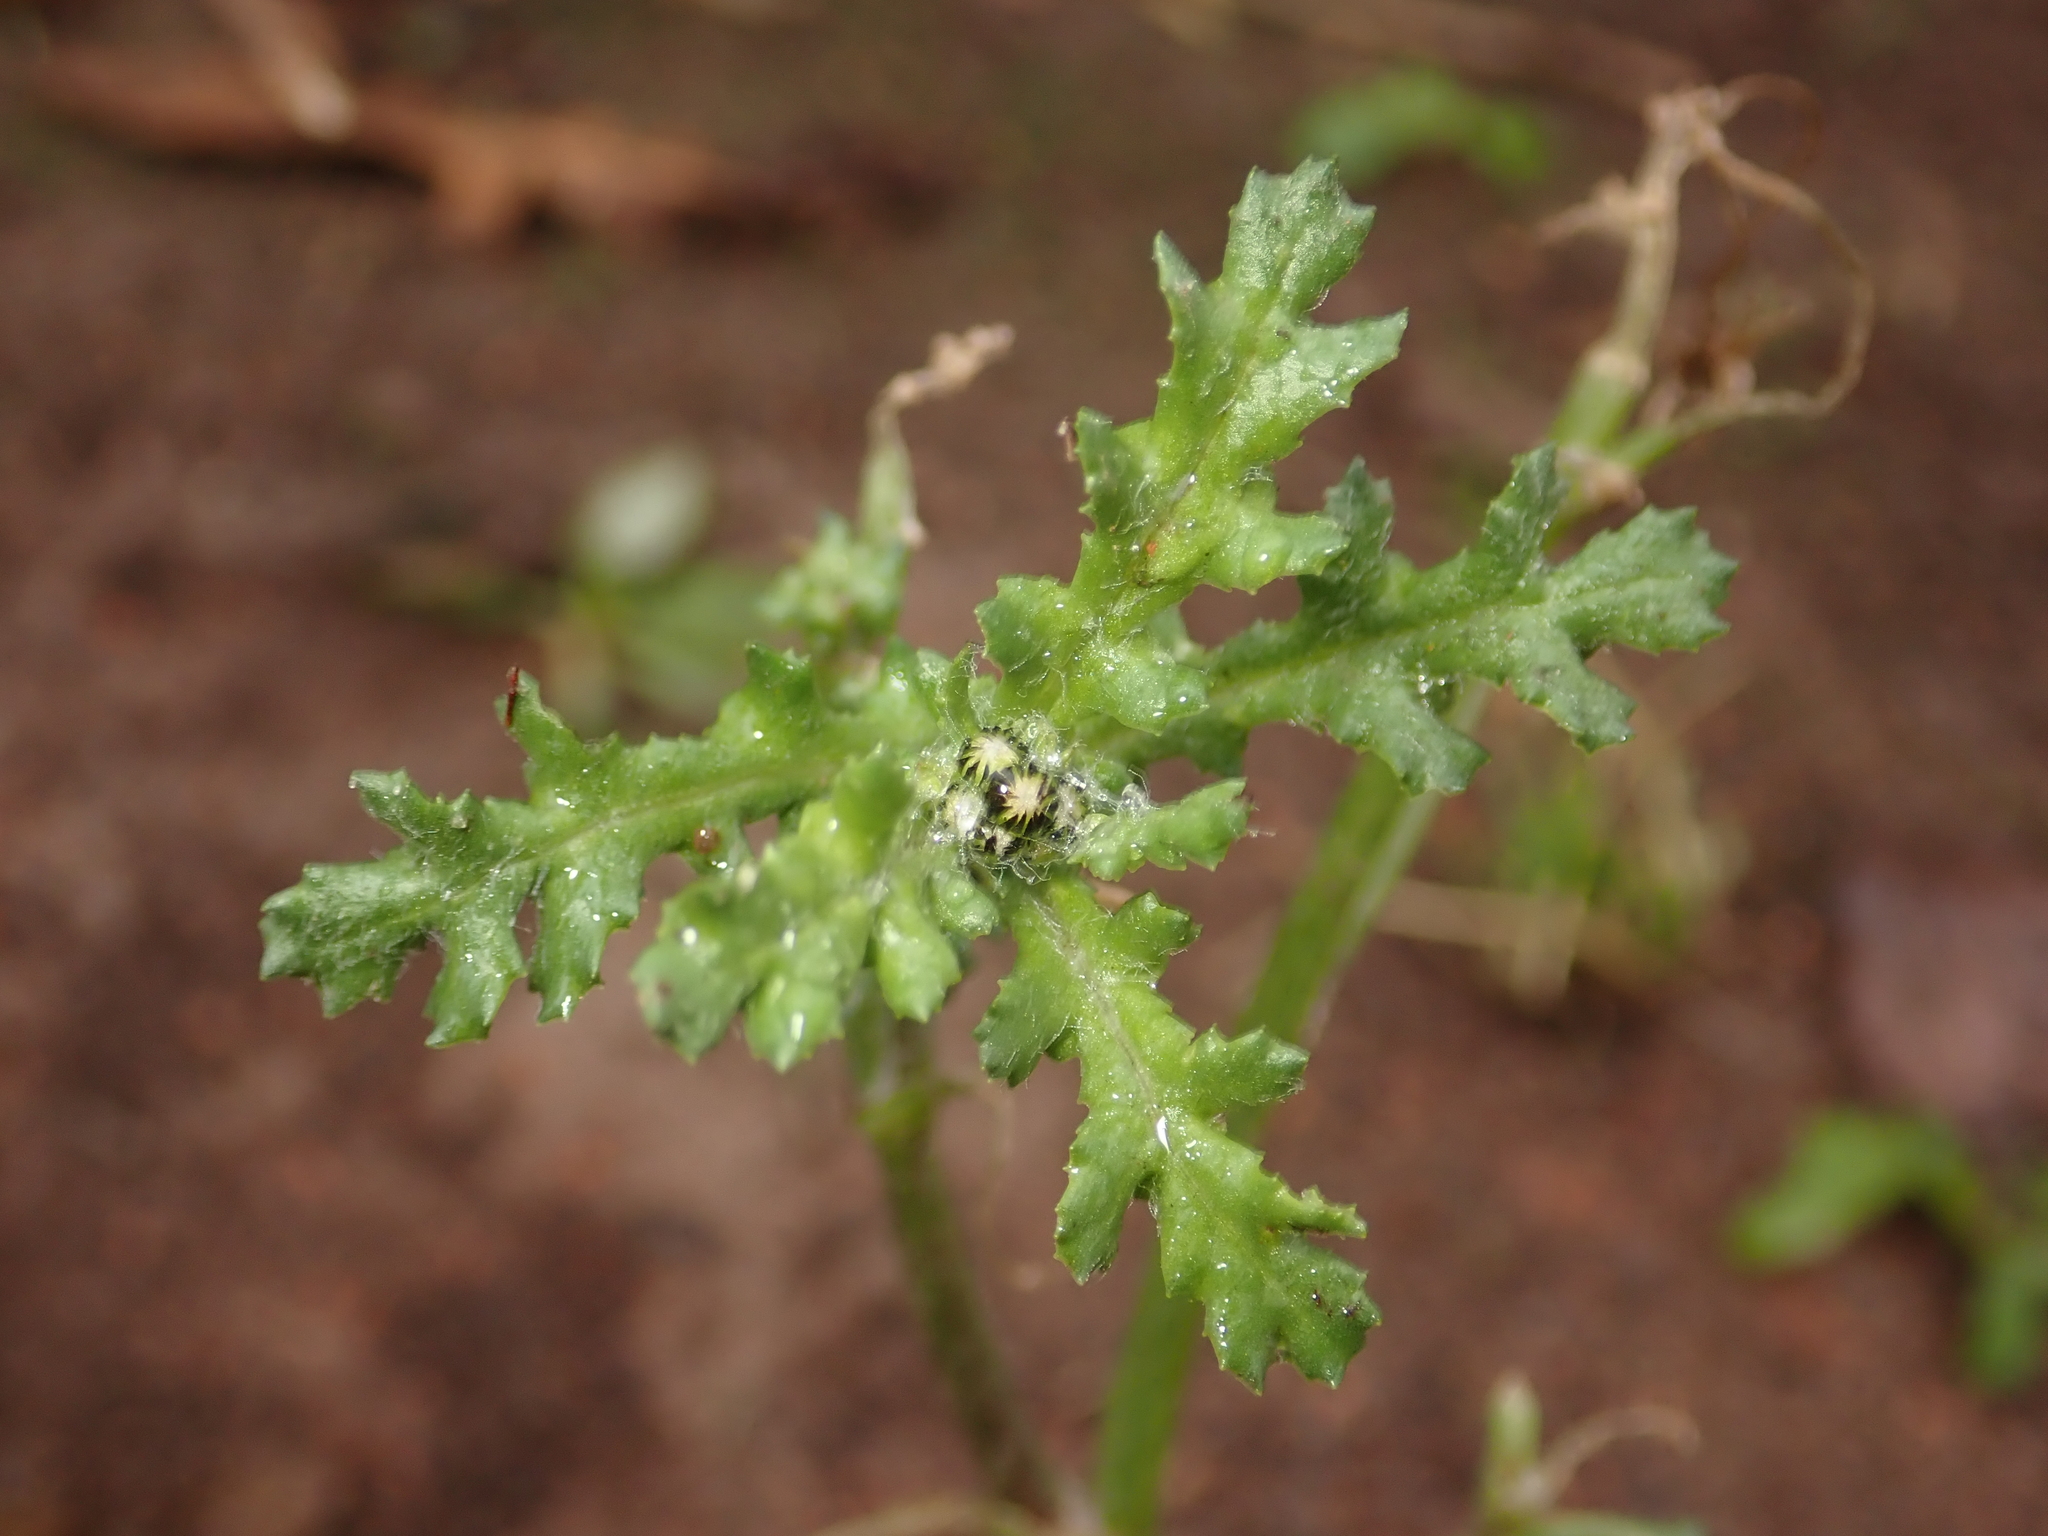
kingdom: Plantae
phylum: Tracheophyta
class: Magnoliopsida
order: Asterales
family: Asteraceae
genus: Senecio
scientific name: Senecio vulgaris
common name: Old-man-in-the-spring
